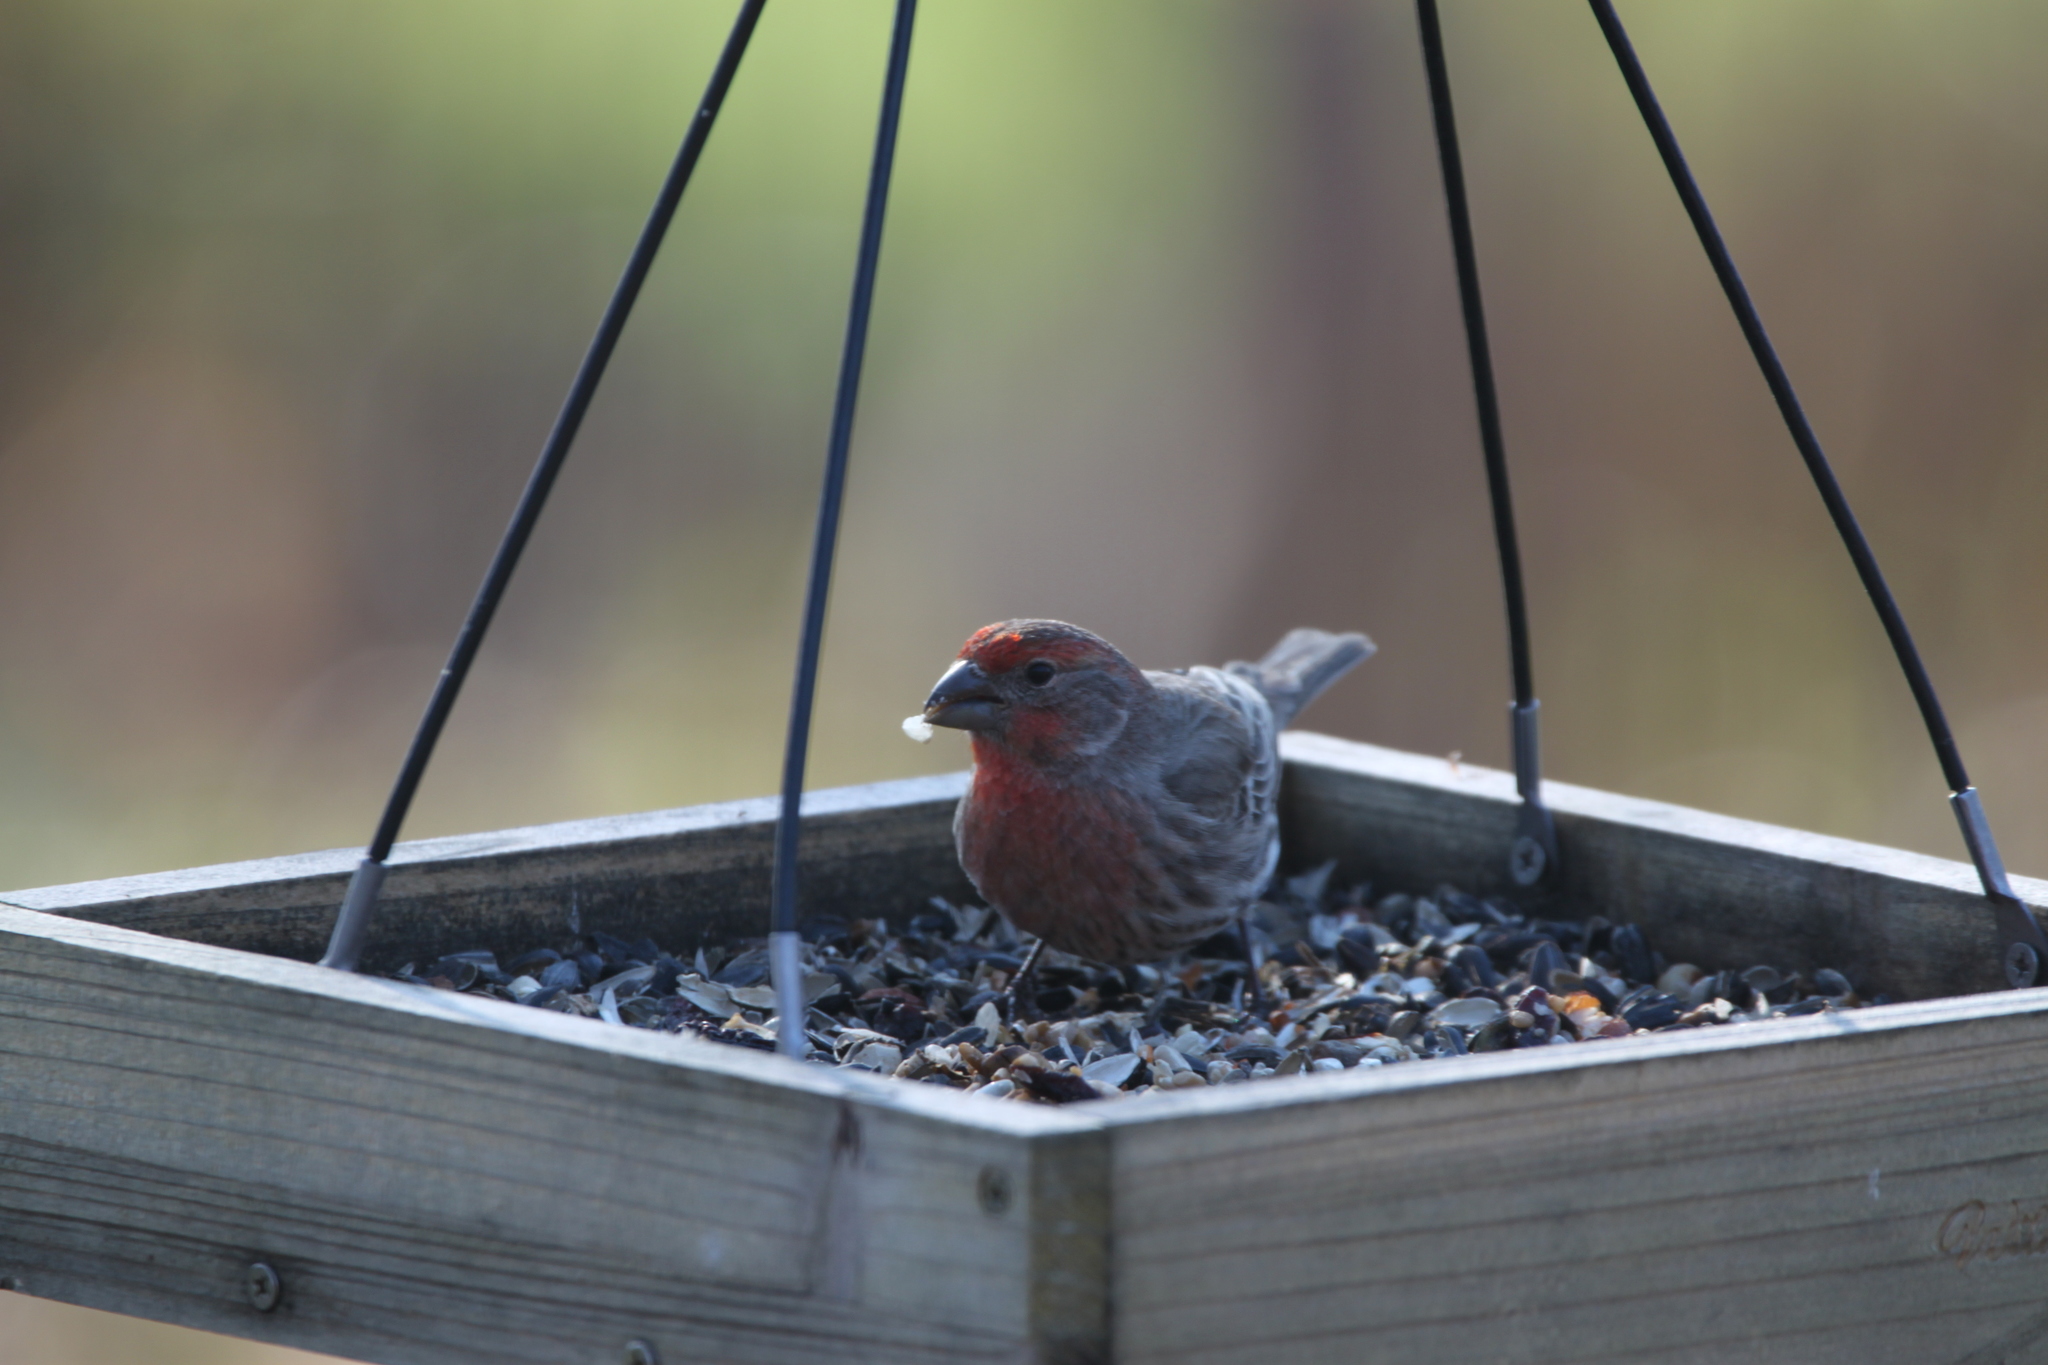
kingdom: Animalia
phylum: Chordata
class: Aves
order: Passeriformes
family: Fringillidae
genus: Haemorhous
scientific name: Haemorhous mexicanus
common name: House finch
